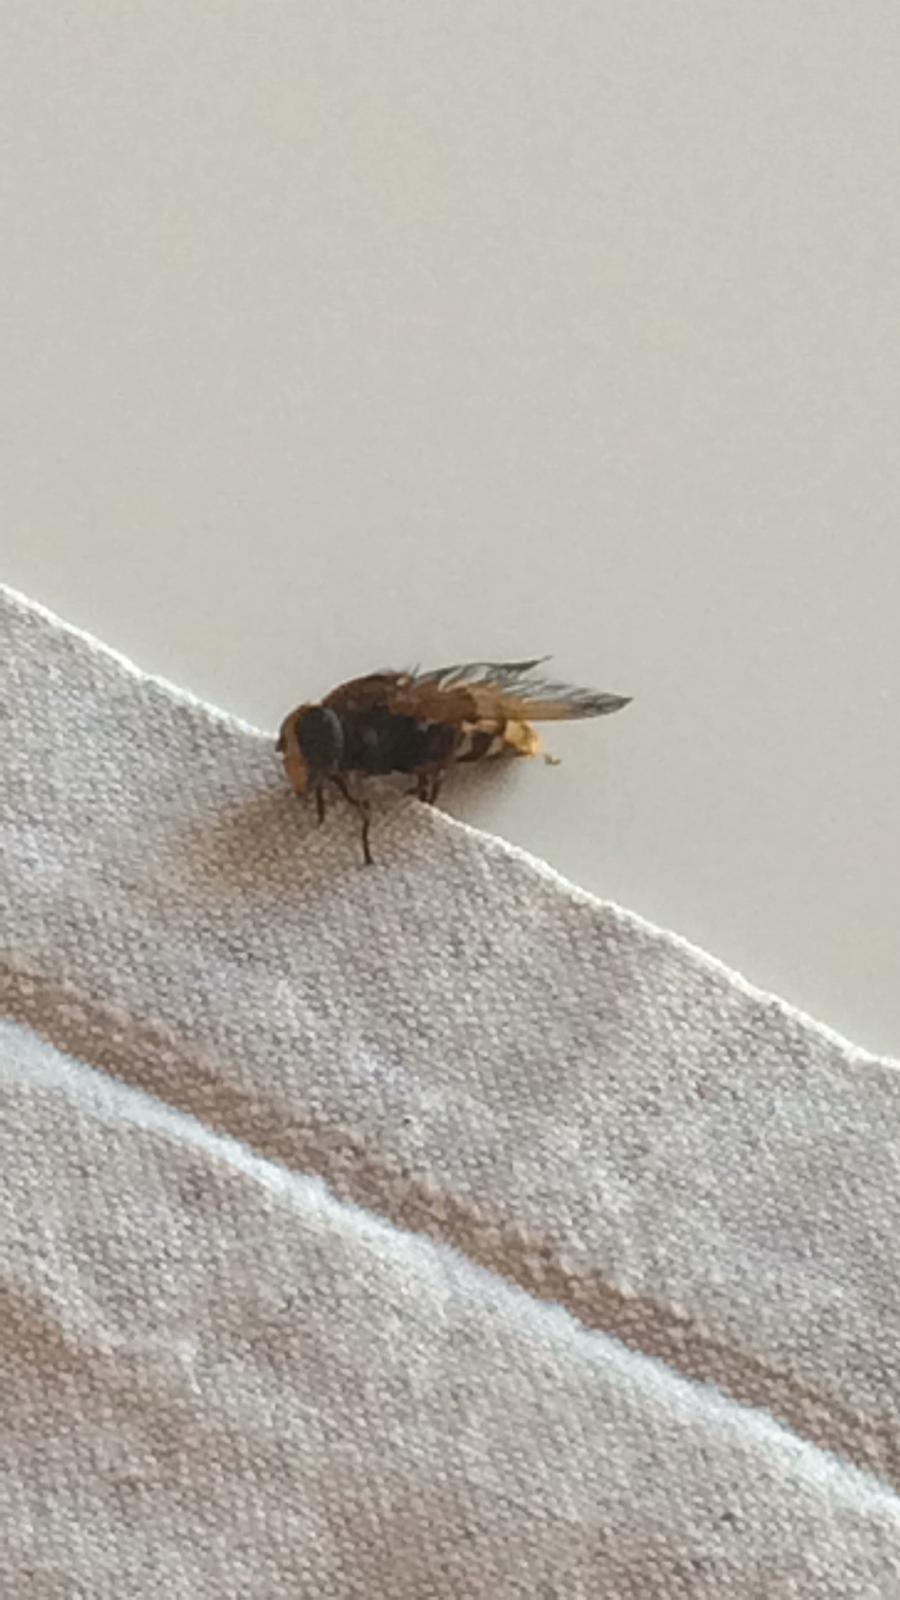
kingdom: Animalia
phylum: Arthropoda
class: Insecta
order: Diptera
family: Syrphidae
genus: Volucella
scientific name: Volucella zonaria
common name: Hornet hoverfly
